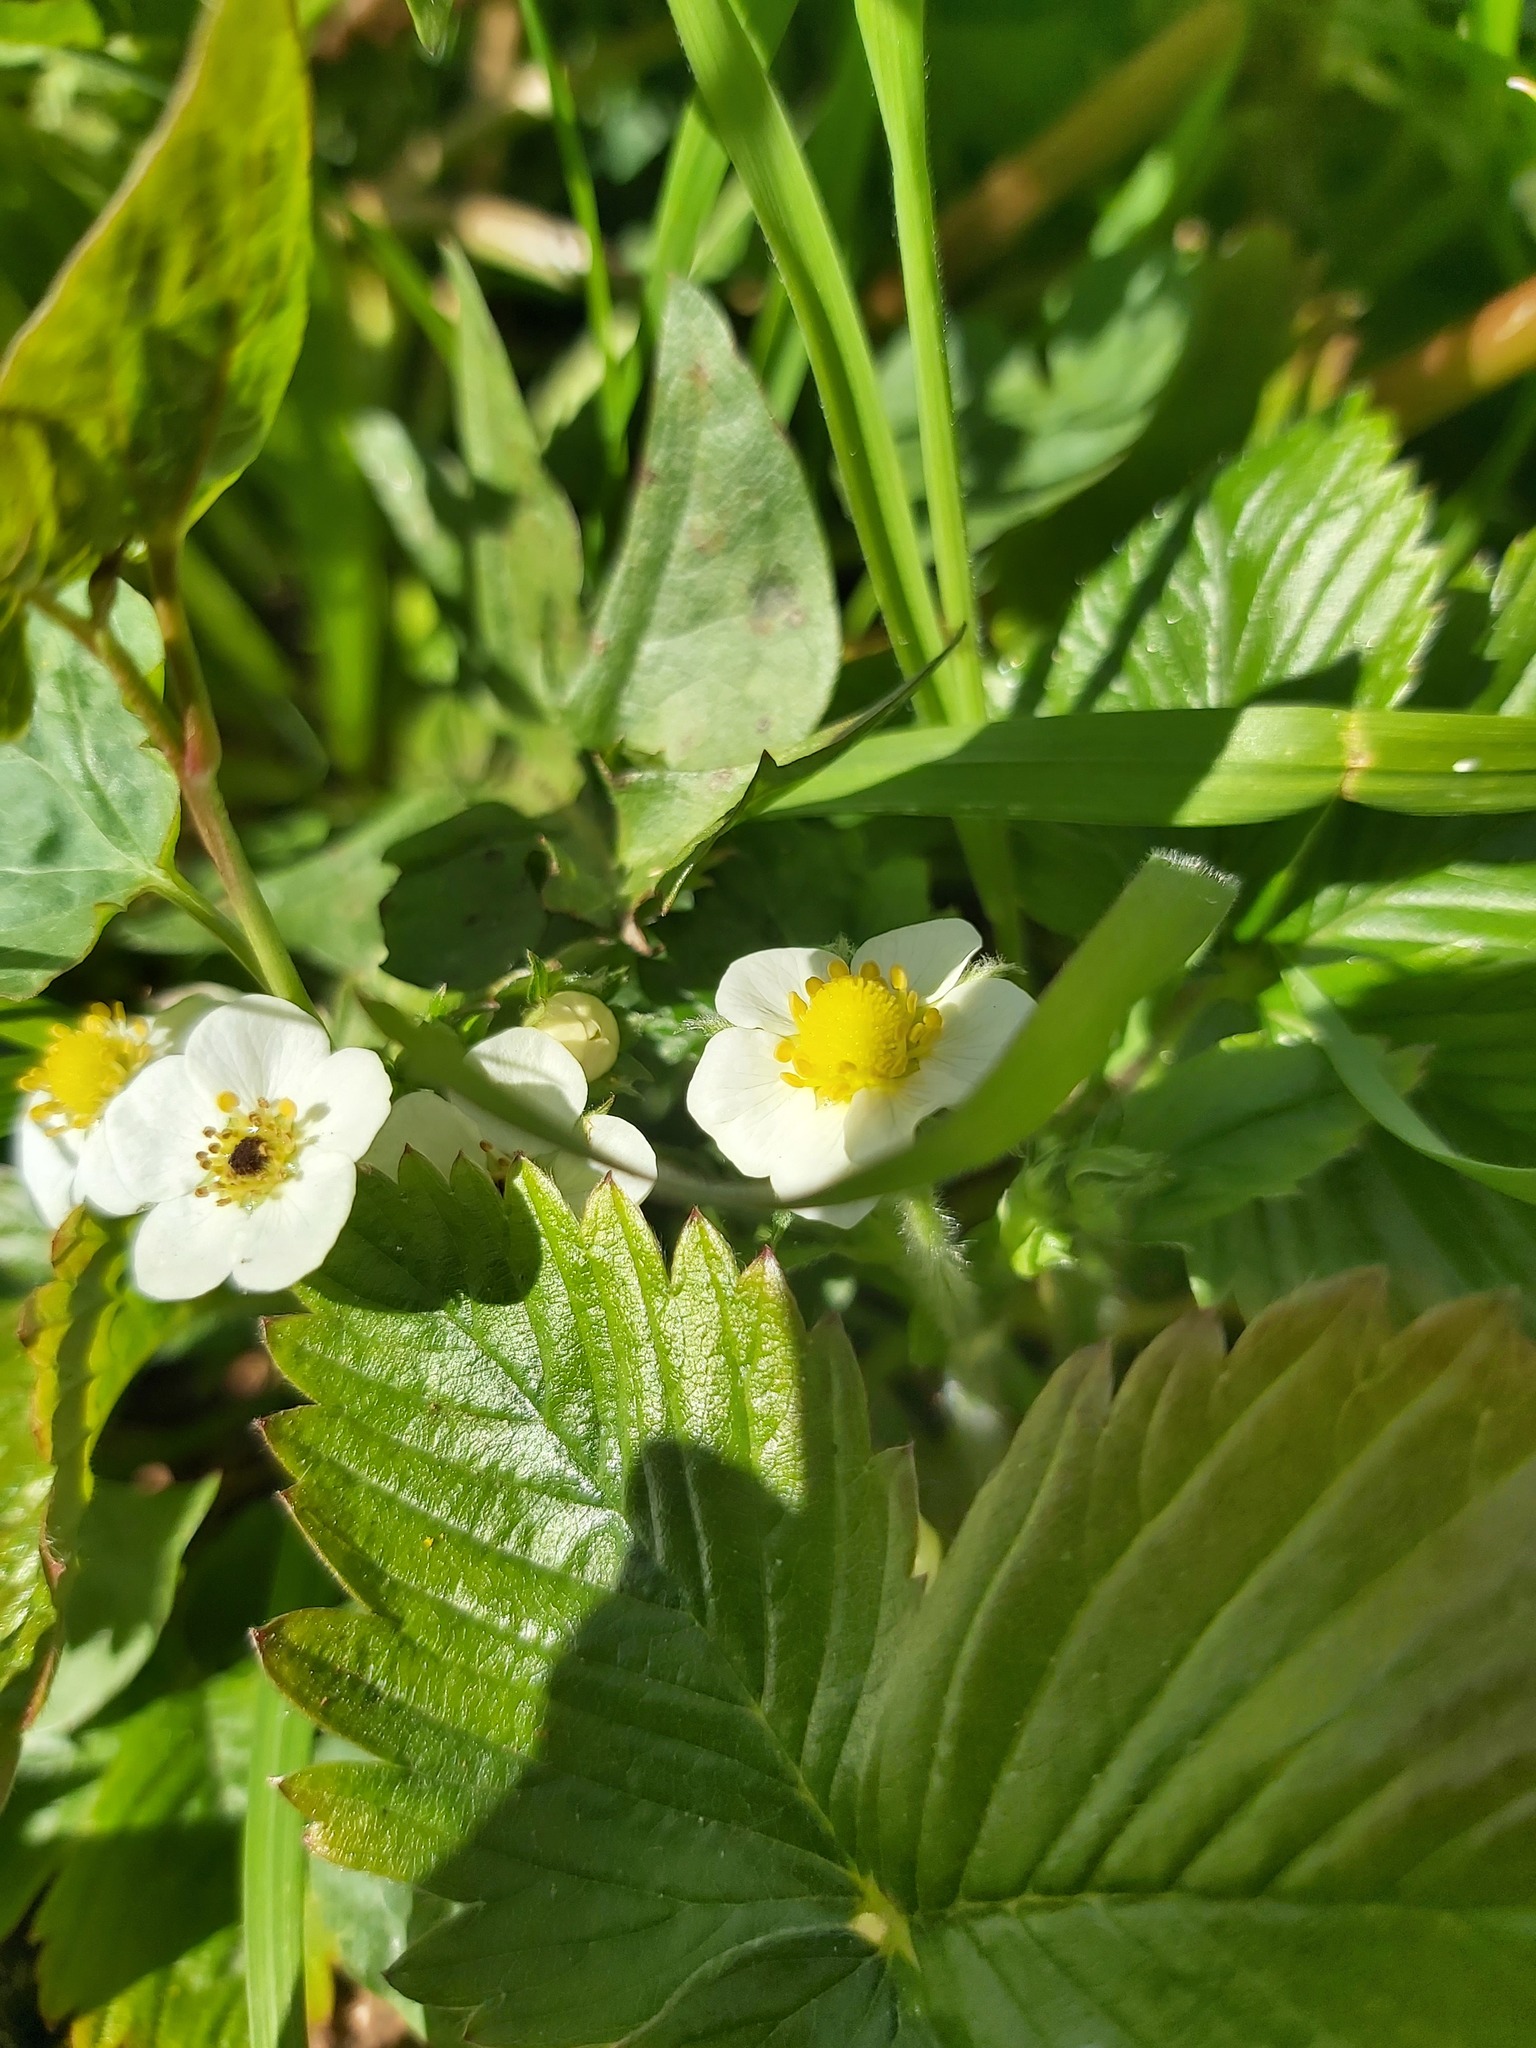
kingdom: Plantae
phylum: Tracheophyta
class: Magnoliopsida
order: Rosales
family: Rosaceae
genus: Fragaria
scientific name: Fragaria vesca
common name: Wild strawberry
